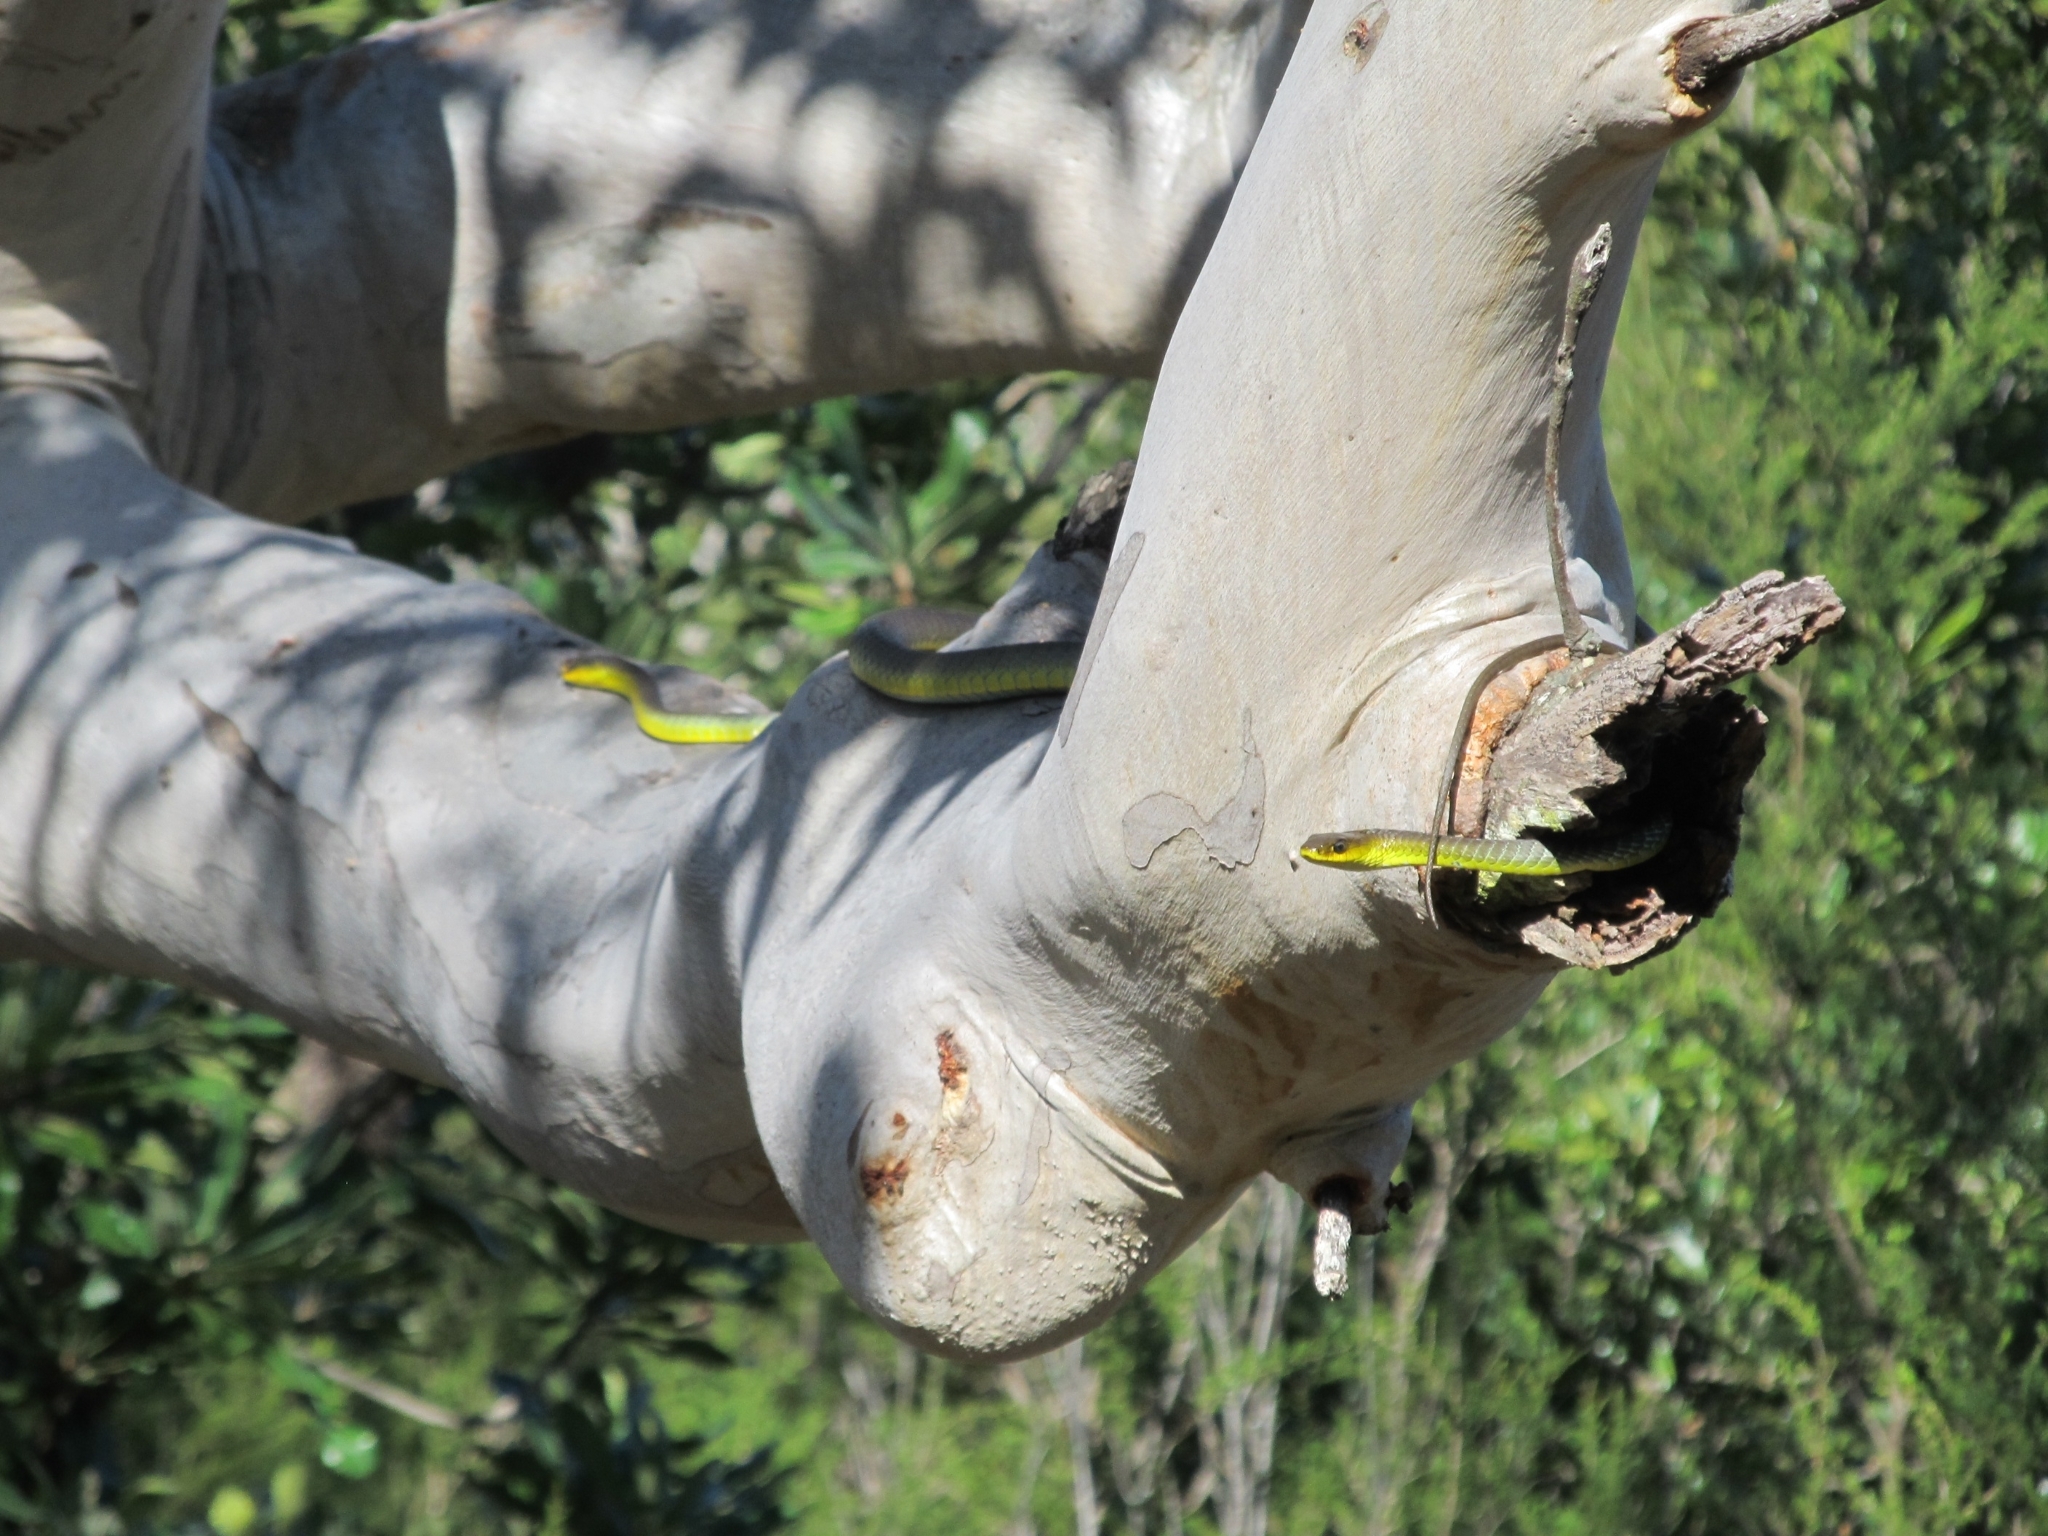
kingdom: Animalia
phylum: Chordata
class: Squamata
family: Colubridae
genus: Dendrelaphis
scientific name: Dendrelaphis punctulatus
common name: Common tree snake
